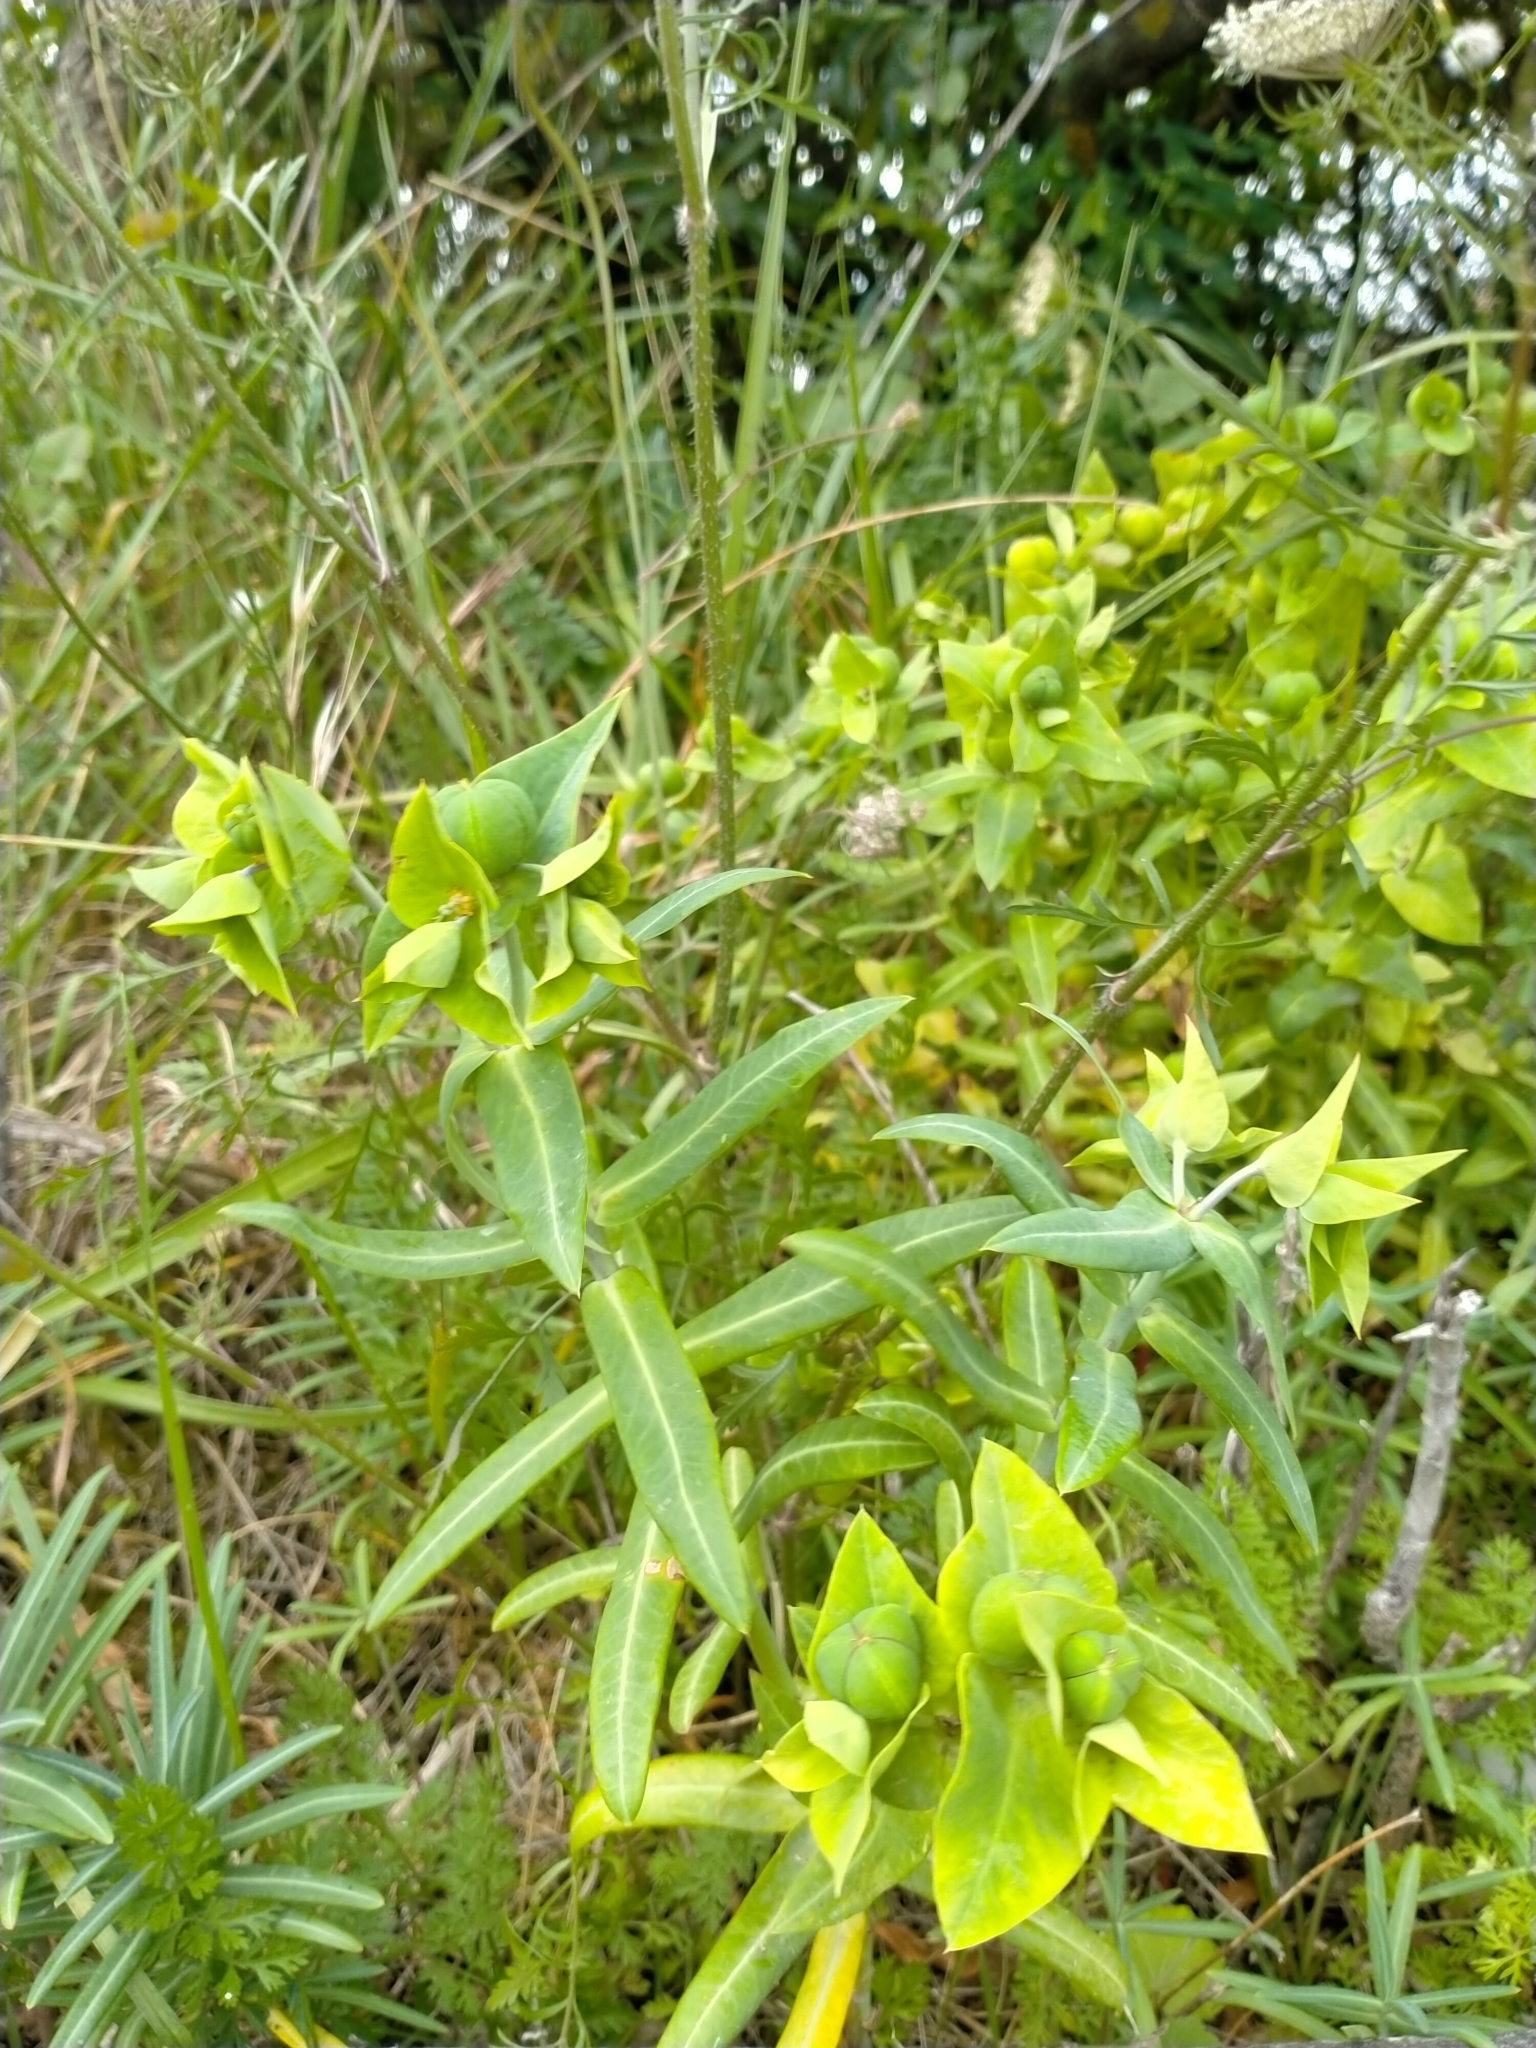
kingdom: Plantae
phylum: Tracheophyta
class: Magnoliopsida
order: Malpighiales
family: Euphorbiaceae
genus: Euphorbia
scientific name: Euphorbia lathyris
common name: Caper spurge
